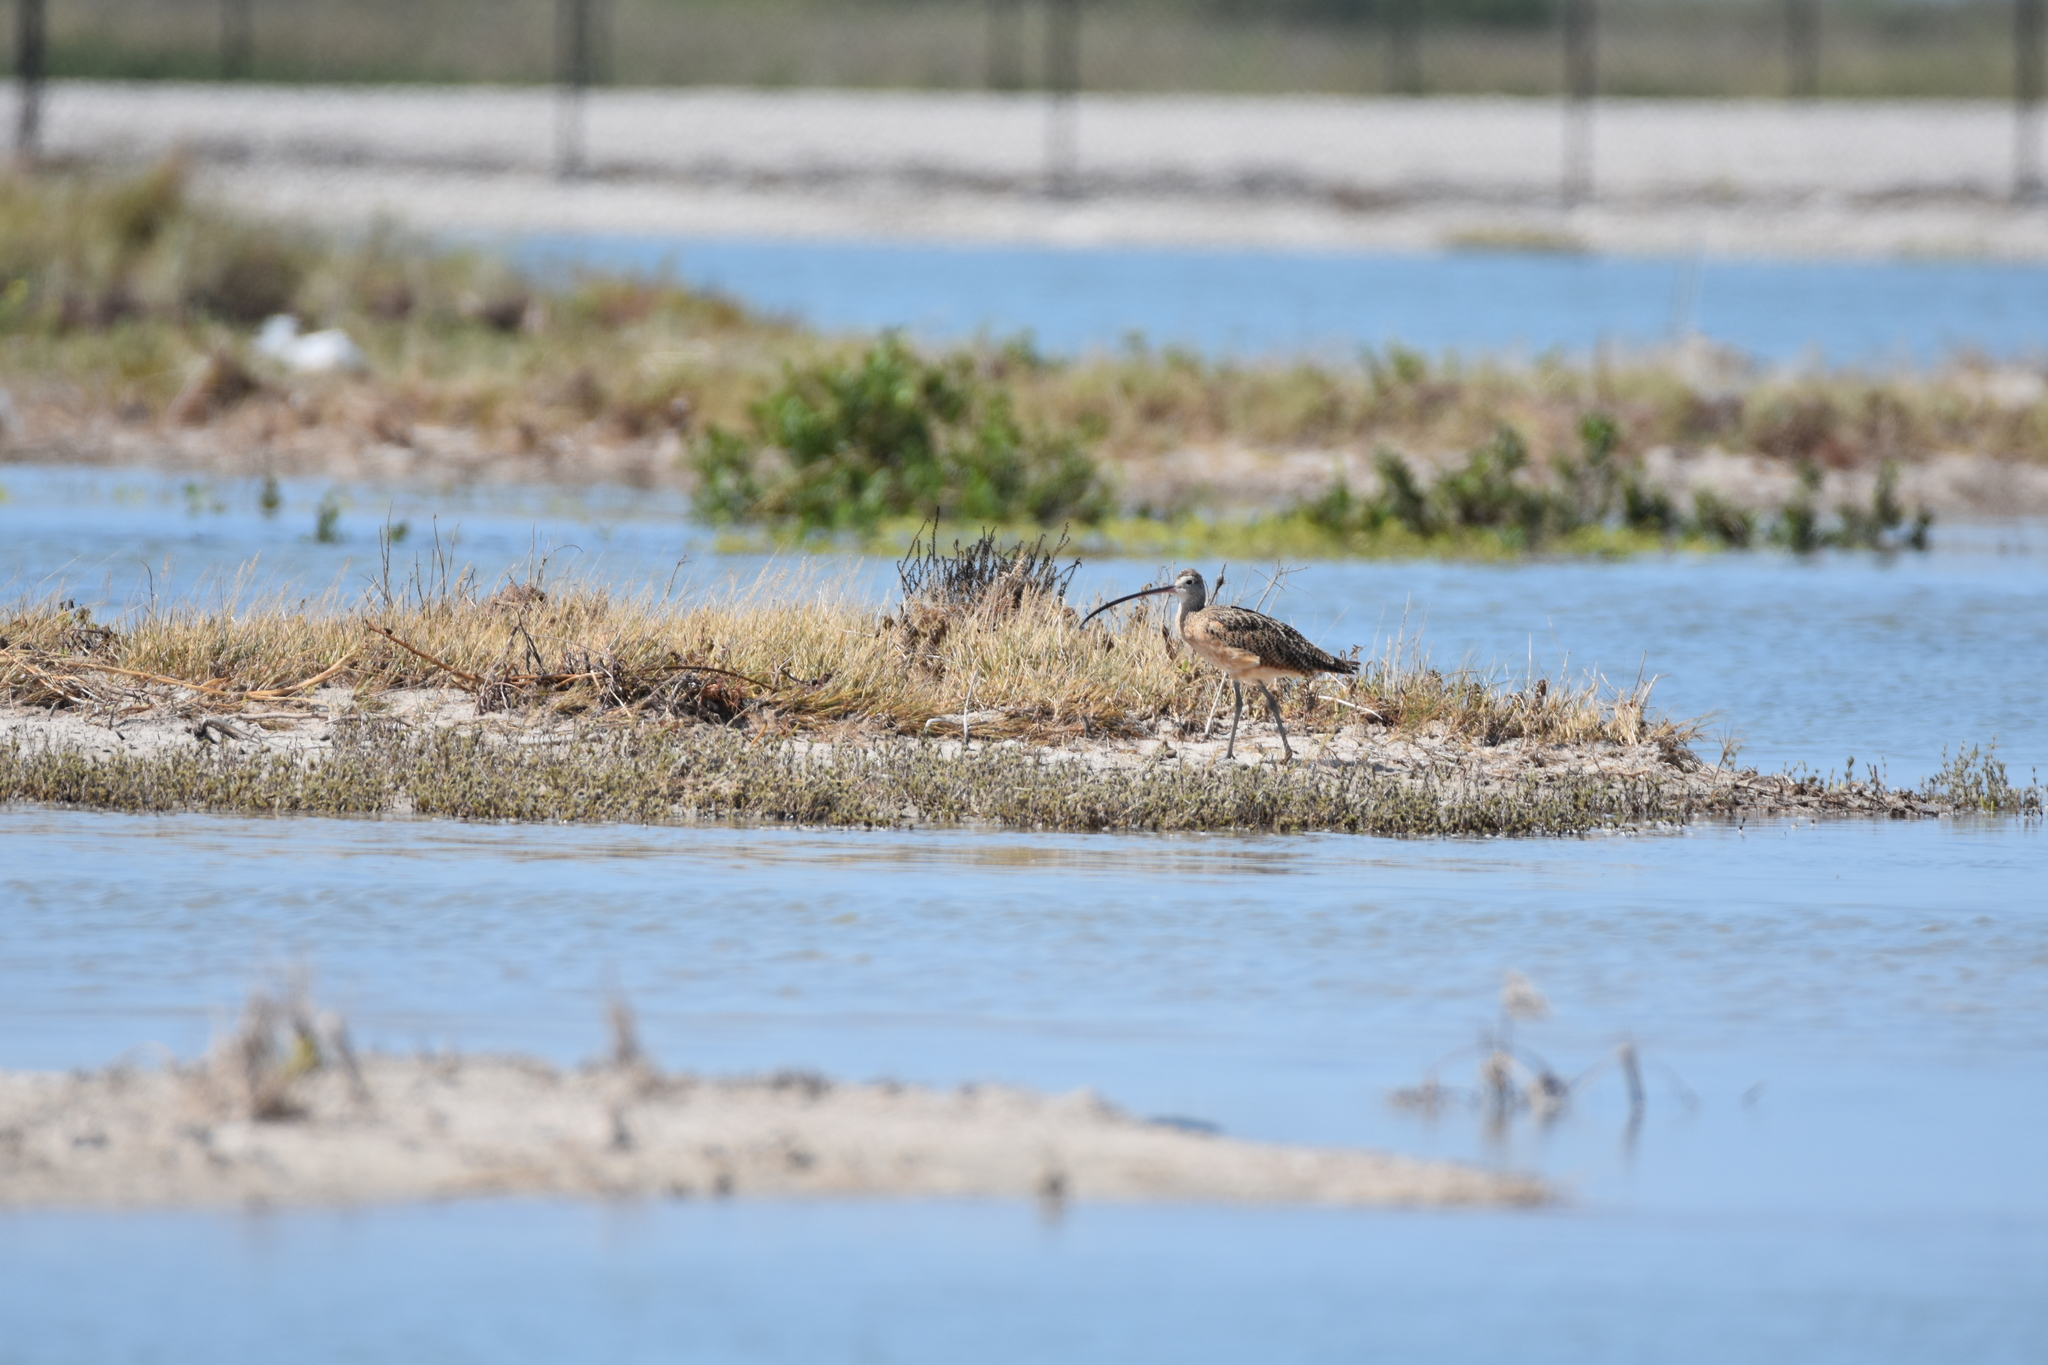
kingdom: Animalia
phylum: Chordata
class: Aves
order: Charadriiformes
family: Scolopacidae
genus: Numenius
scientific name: Numenius americanus
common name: Long-billed curlew
